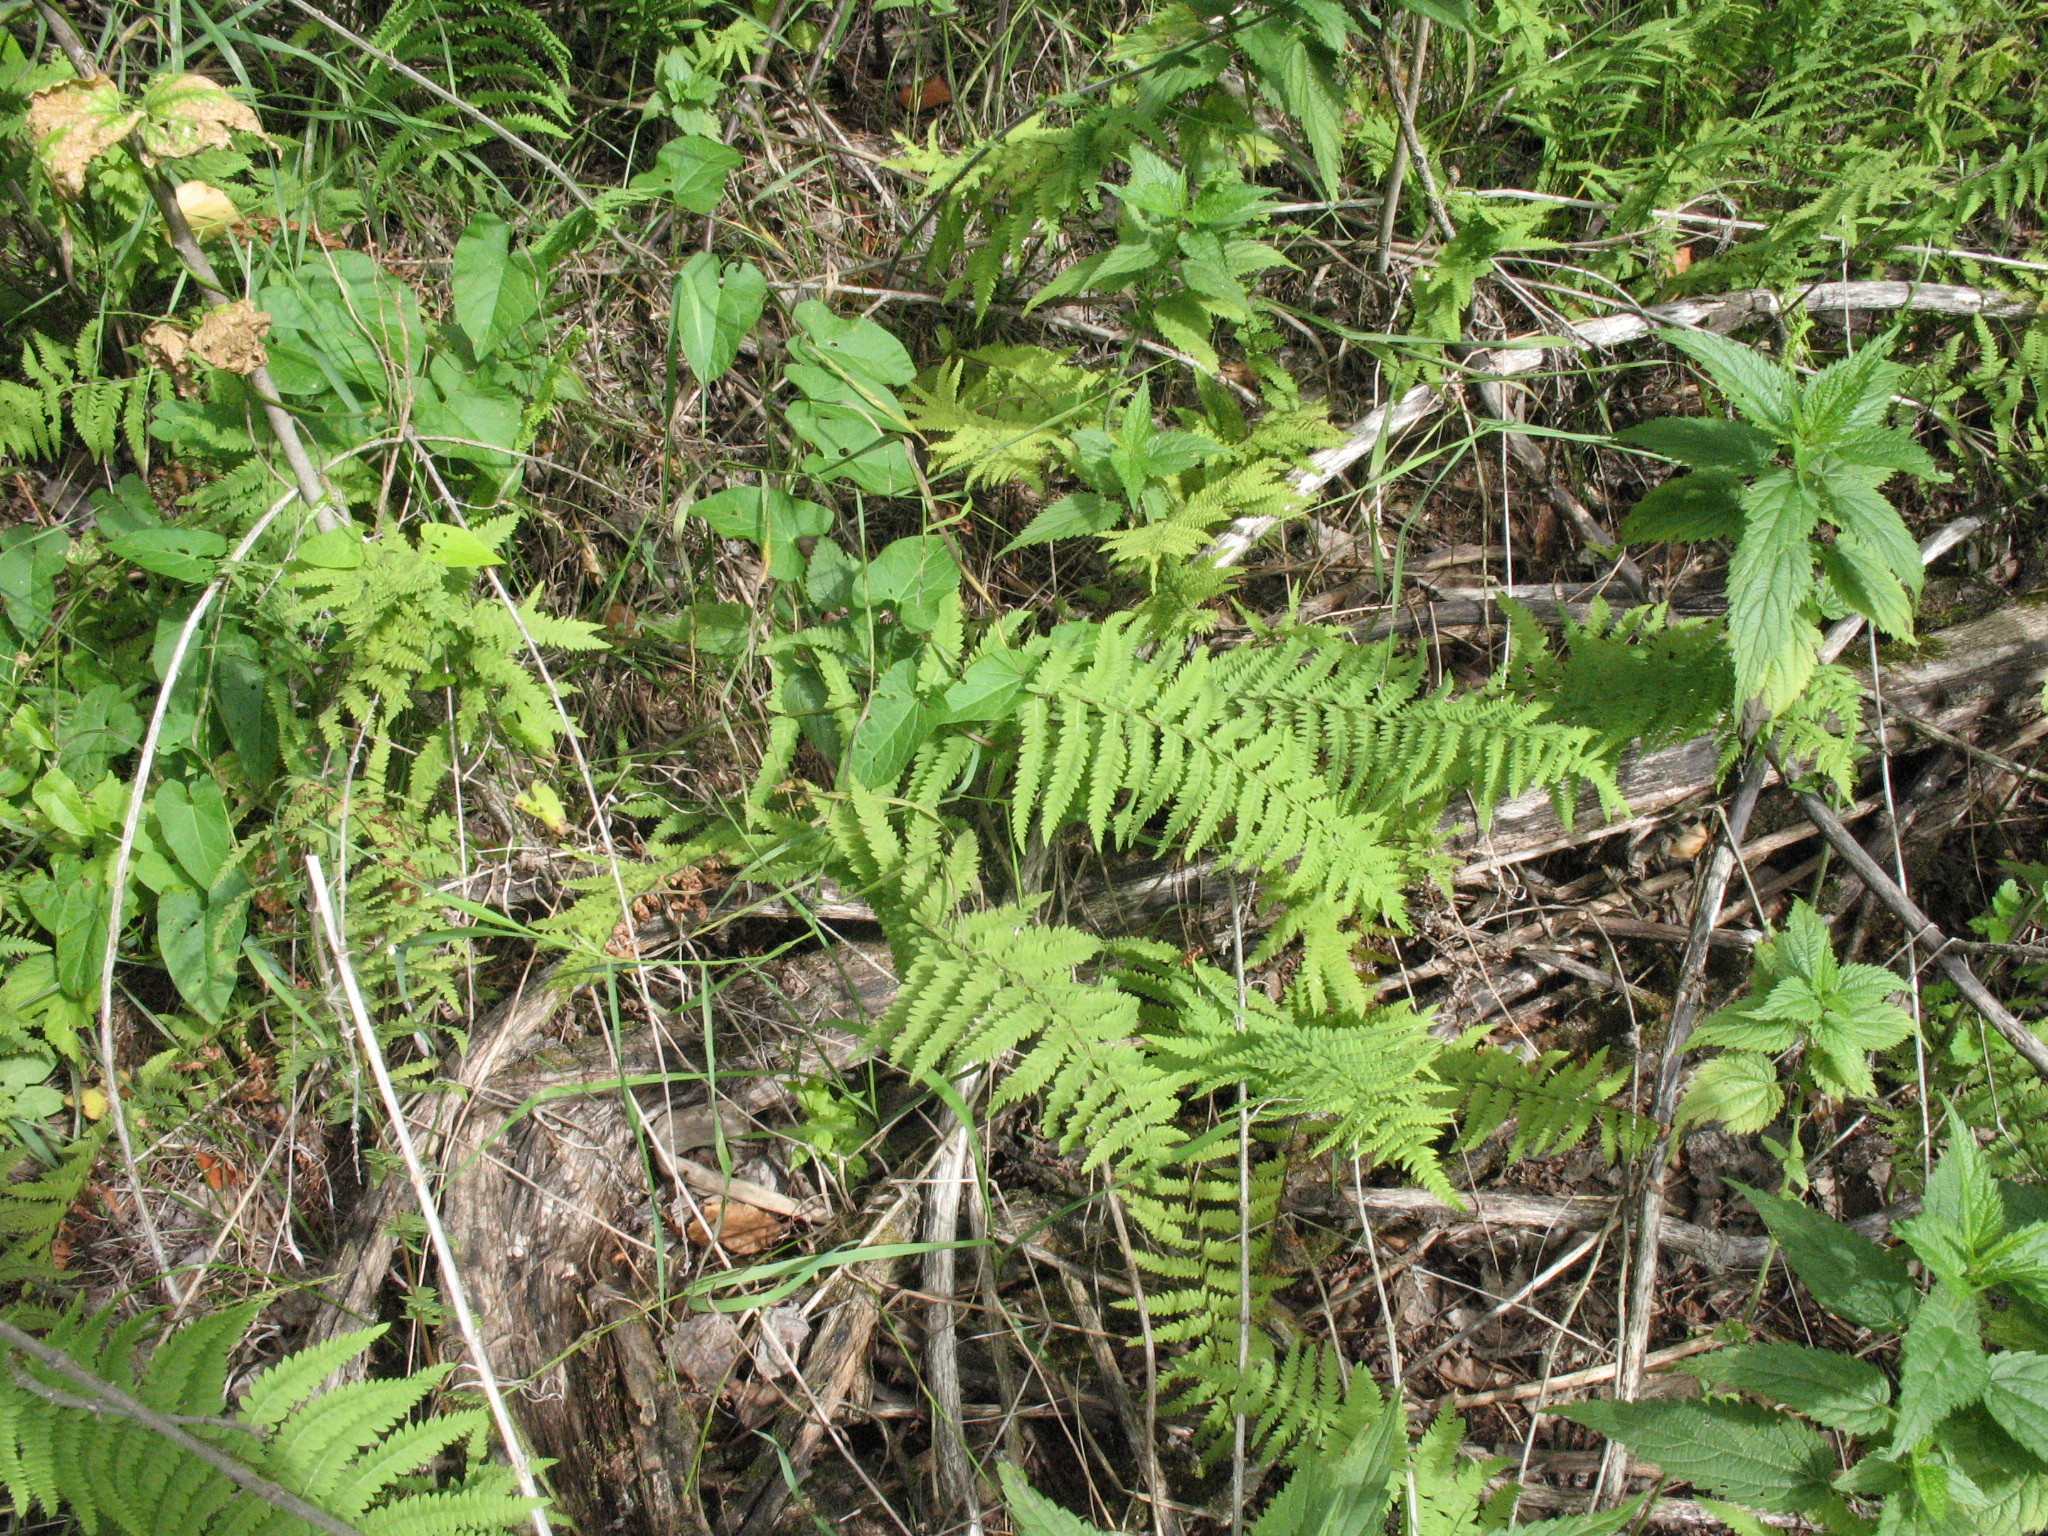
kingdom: Plantae
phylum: Tracheophyta
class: Polypodiopsida
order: Polypodiales
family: Thelypteridaceae
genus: Thelypteris
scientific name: Thelypteris palustris
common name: Marsh fern
